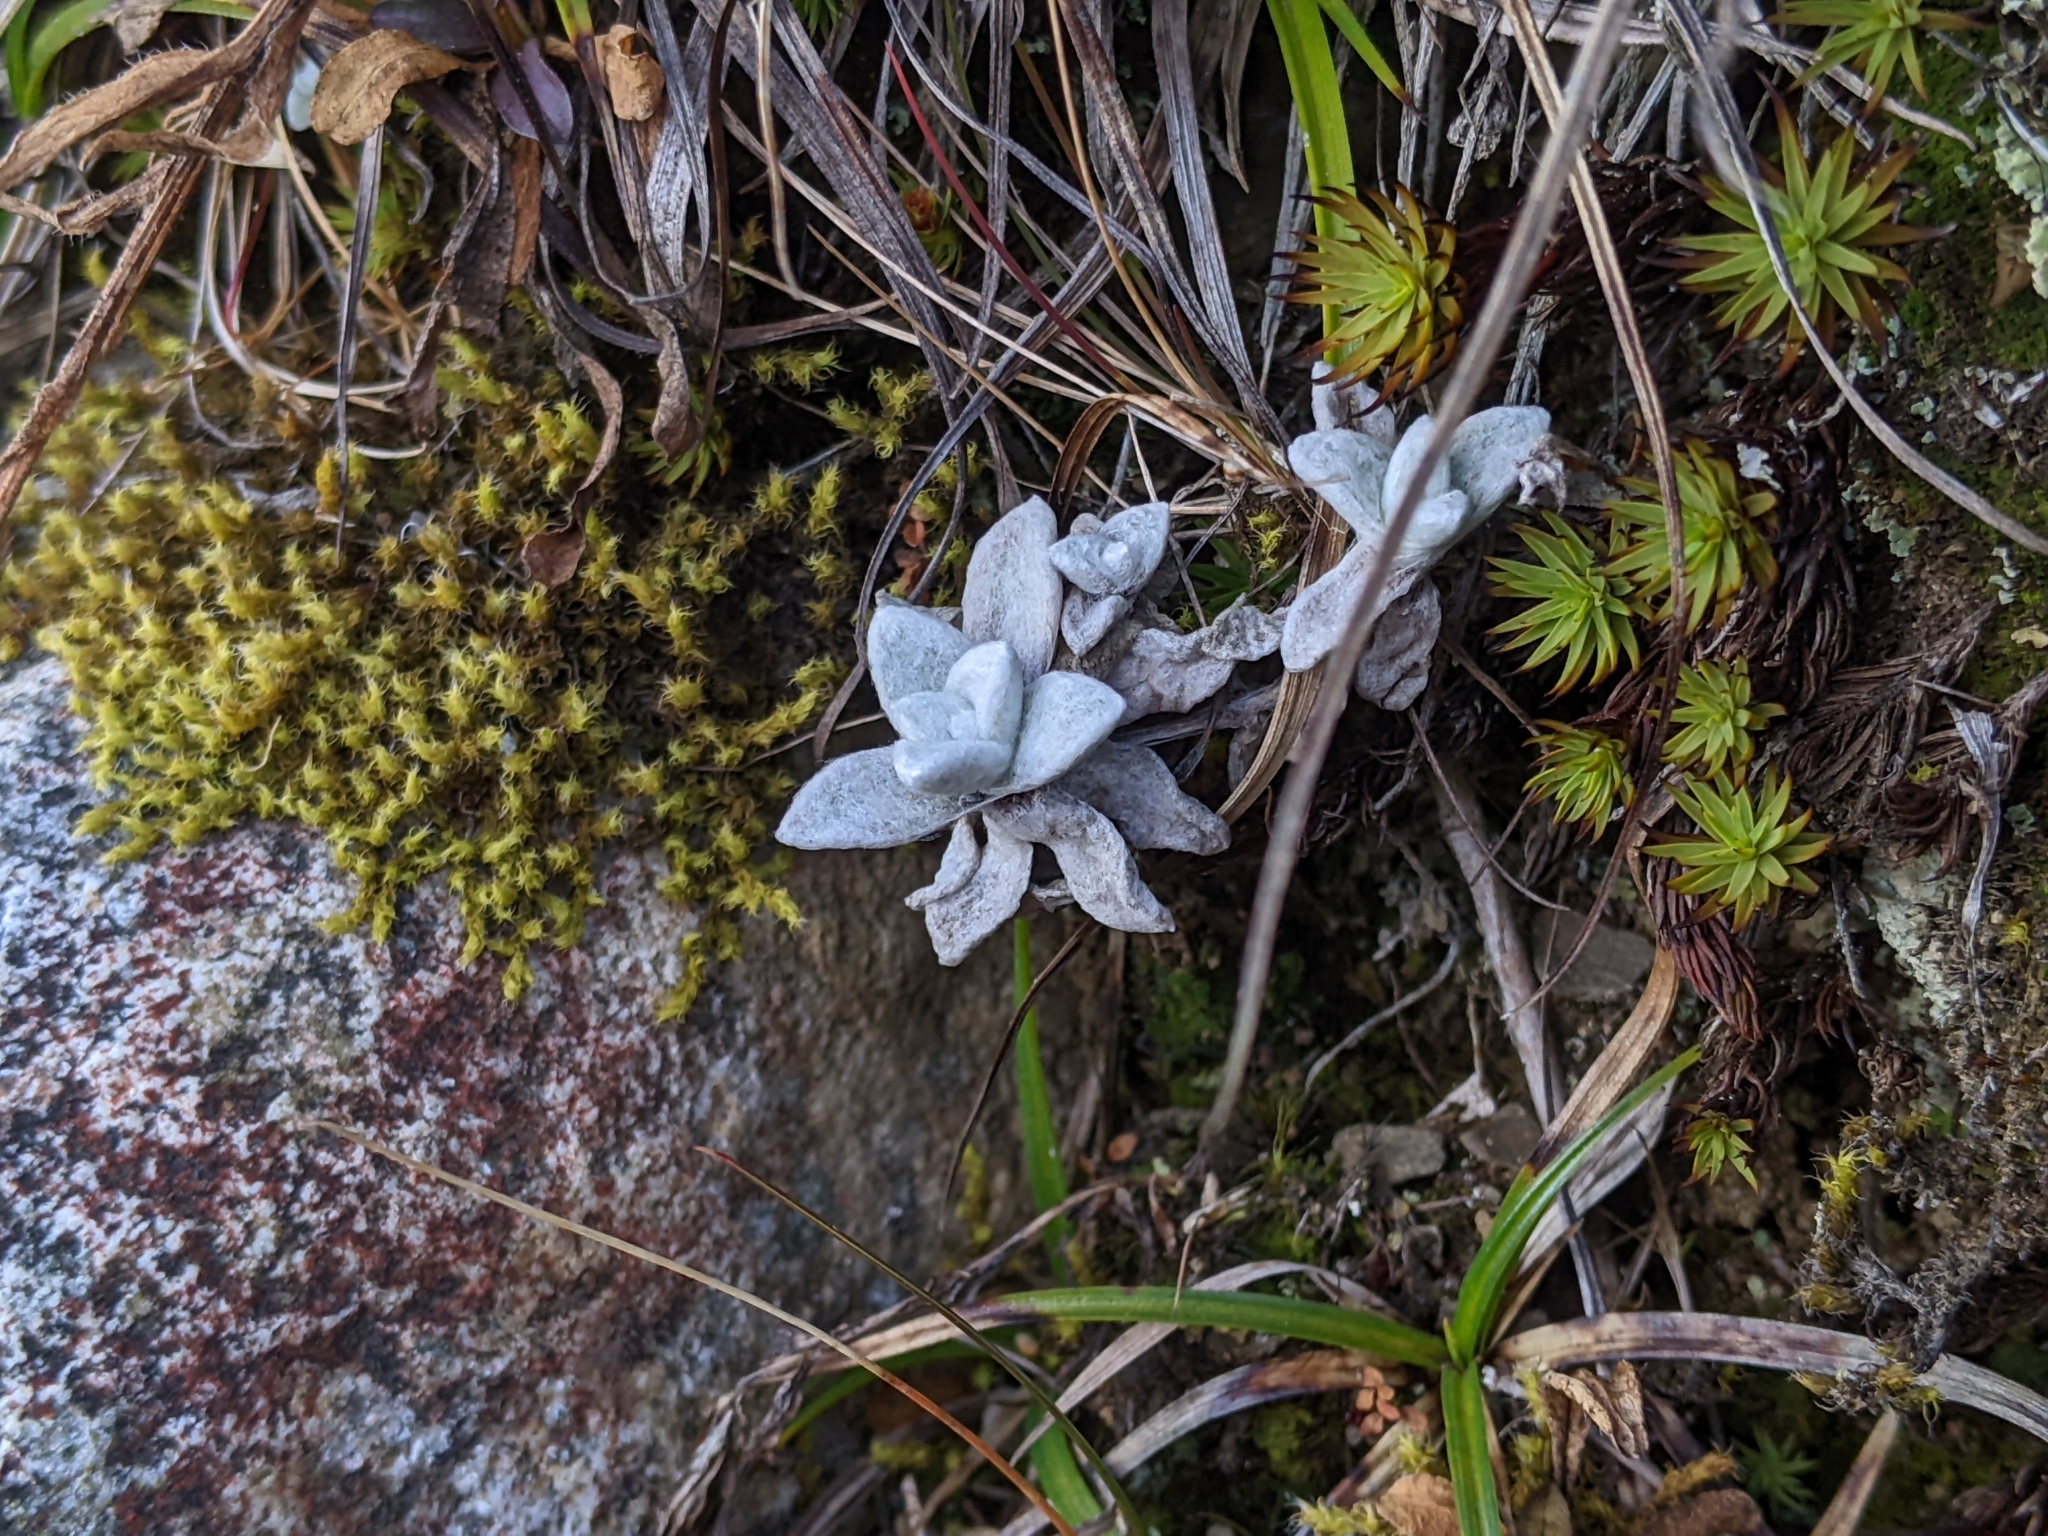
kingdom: Plantae
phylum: Tracheophyta
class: Magnoliopsida
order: Asterales
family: Asteraceae
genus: Anaphalis
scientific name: Anaphalis morrisonicola
